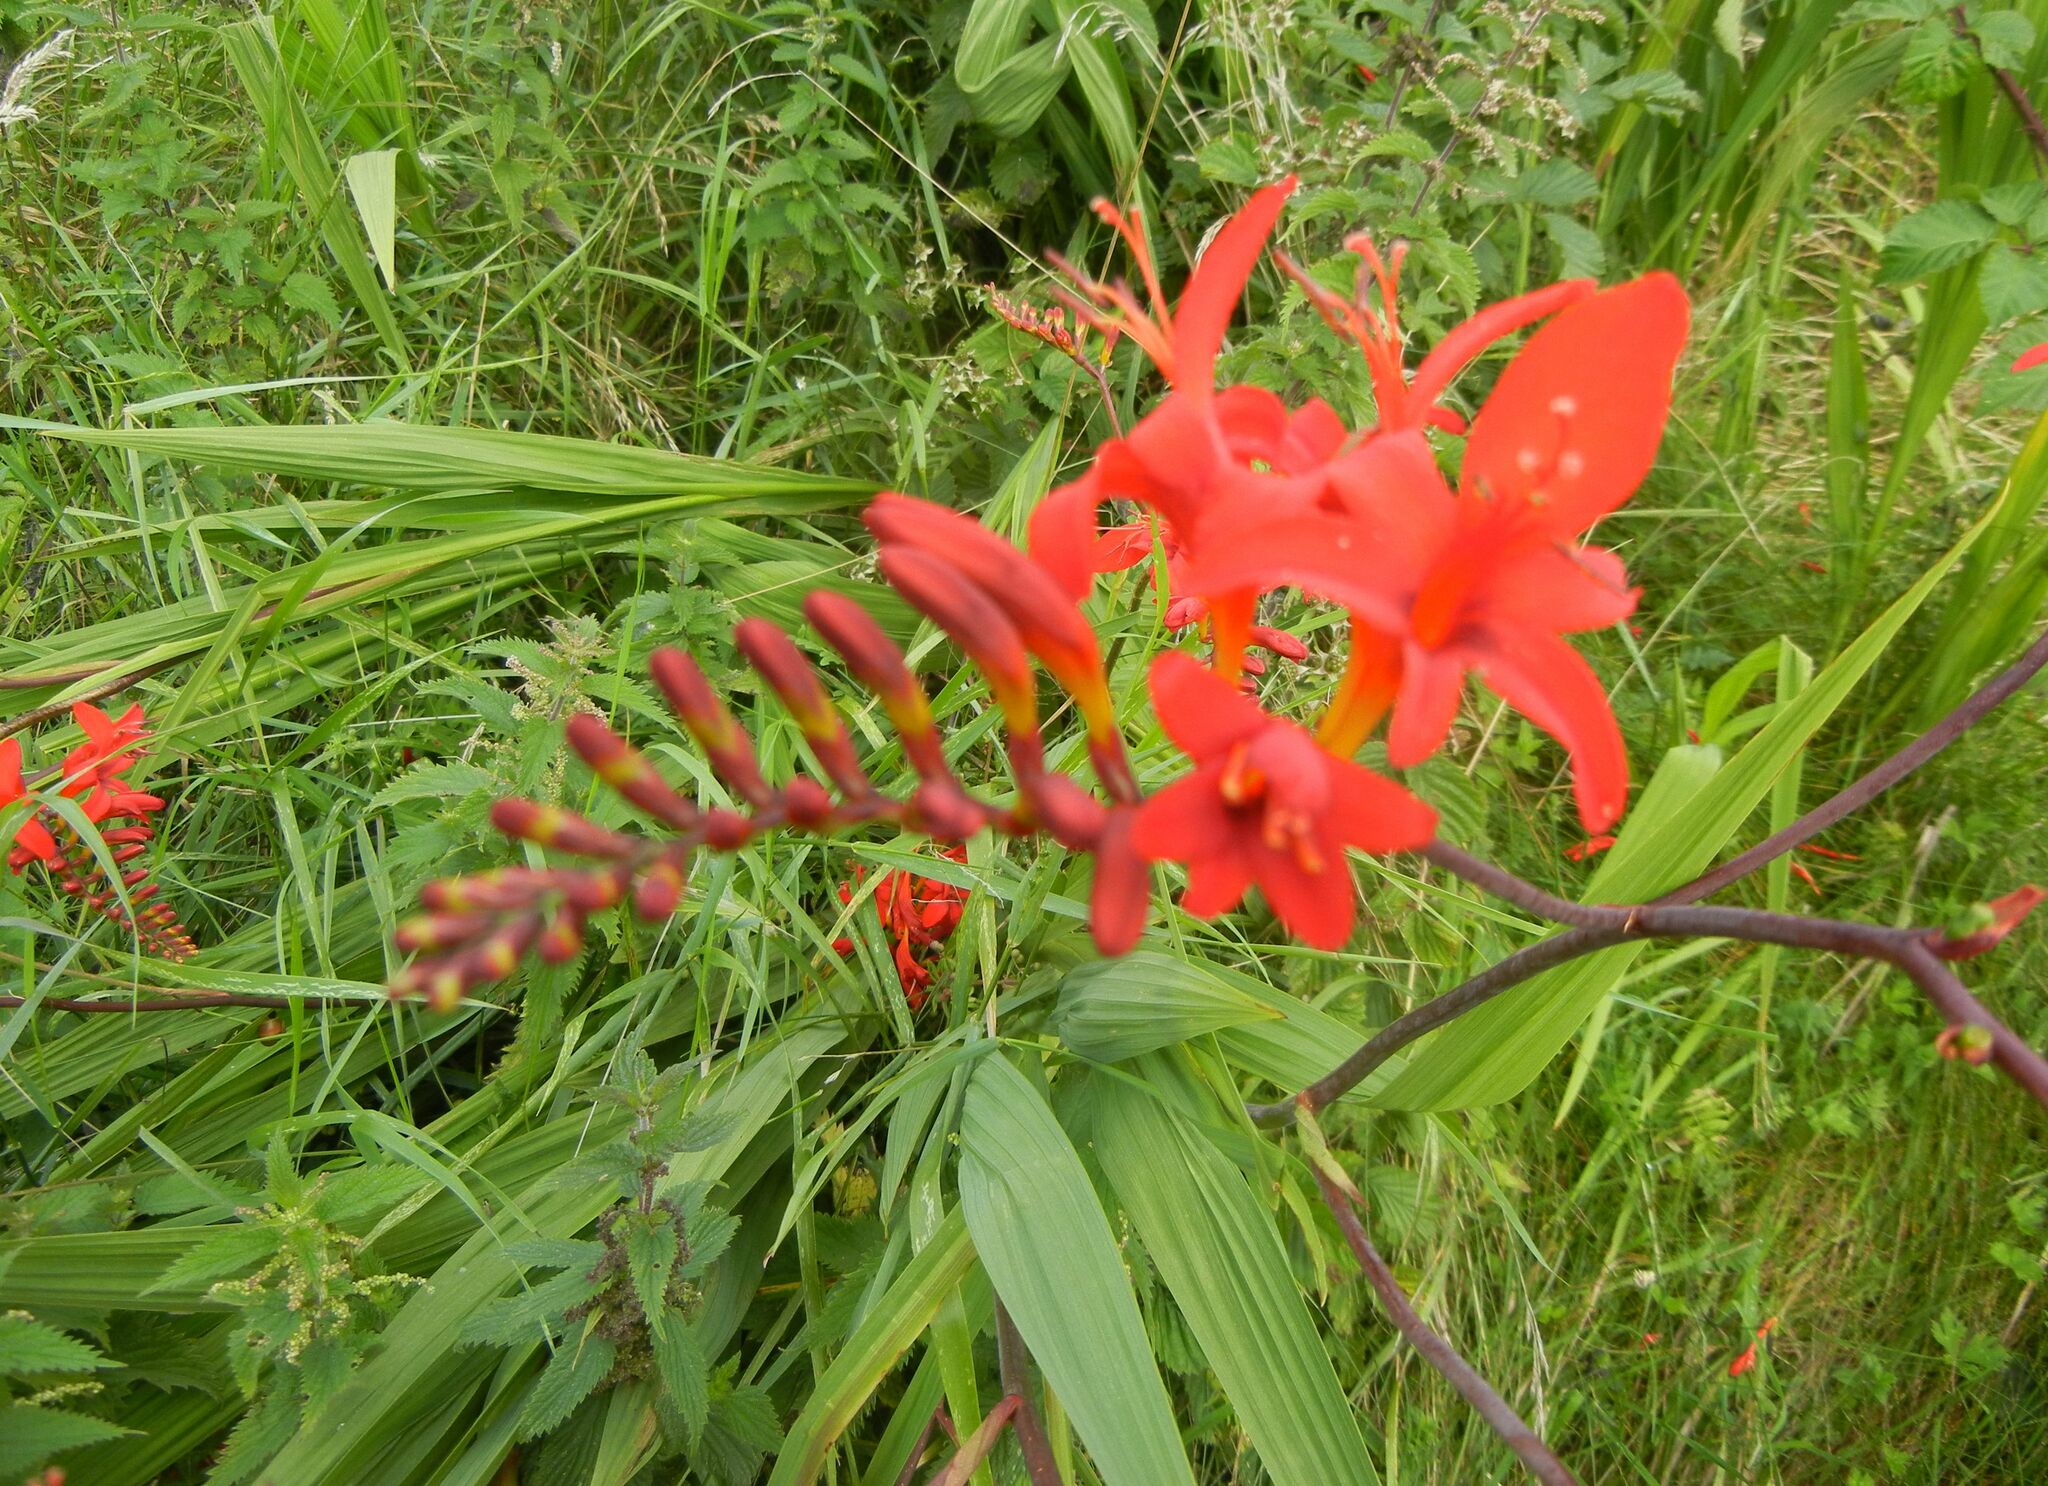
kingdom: Plantae
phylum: Tracheophyta
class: Liliopsida
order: Asparagales
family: Iridaceae
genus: Crocosmia
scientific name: Crocosmia
